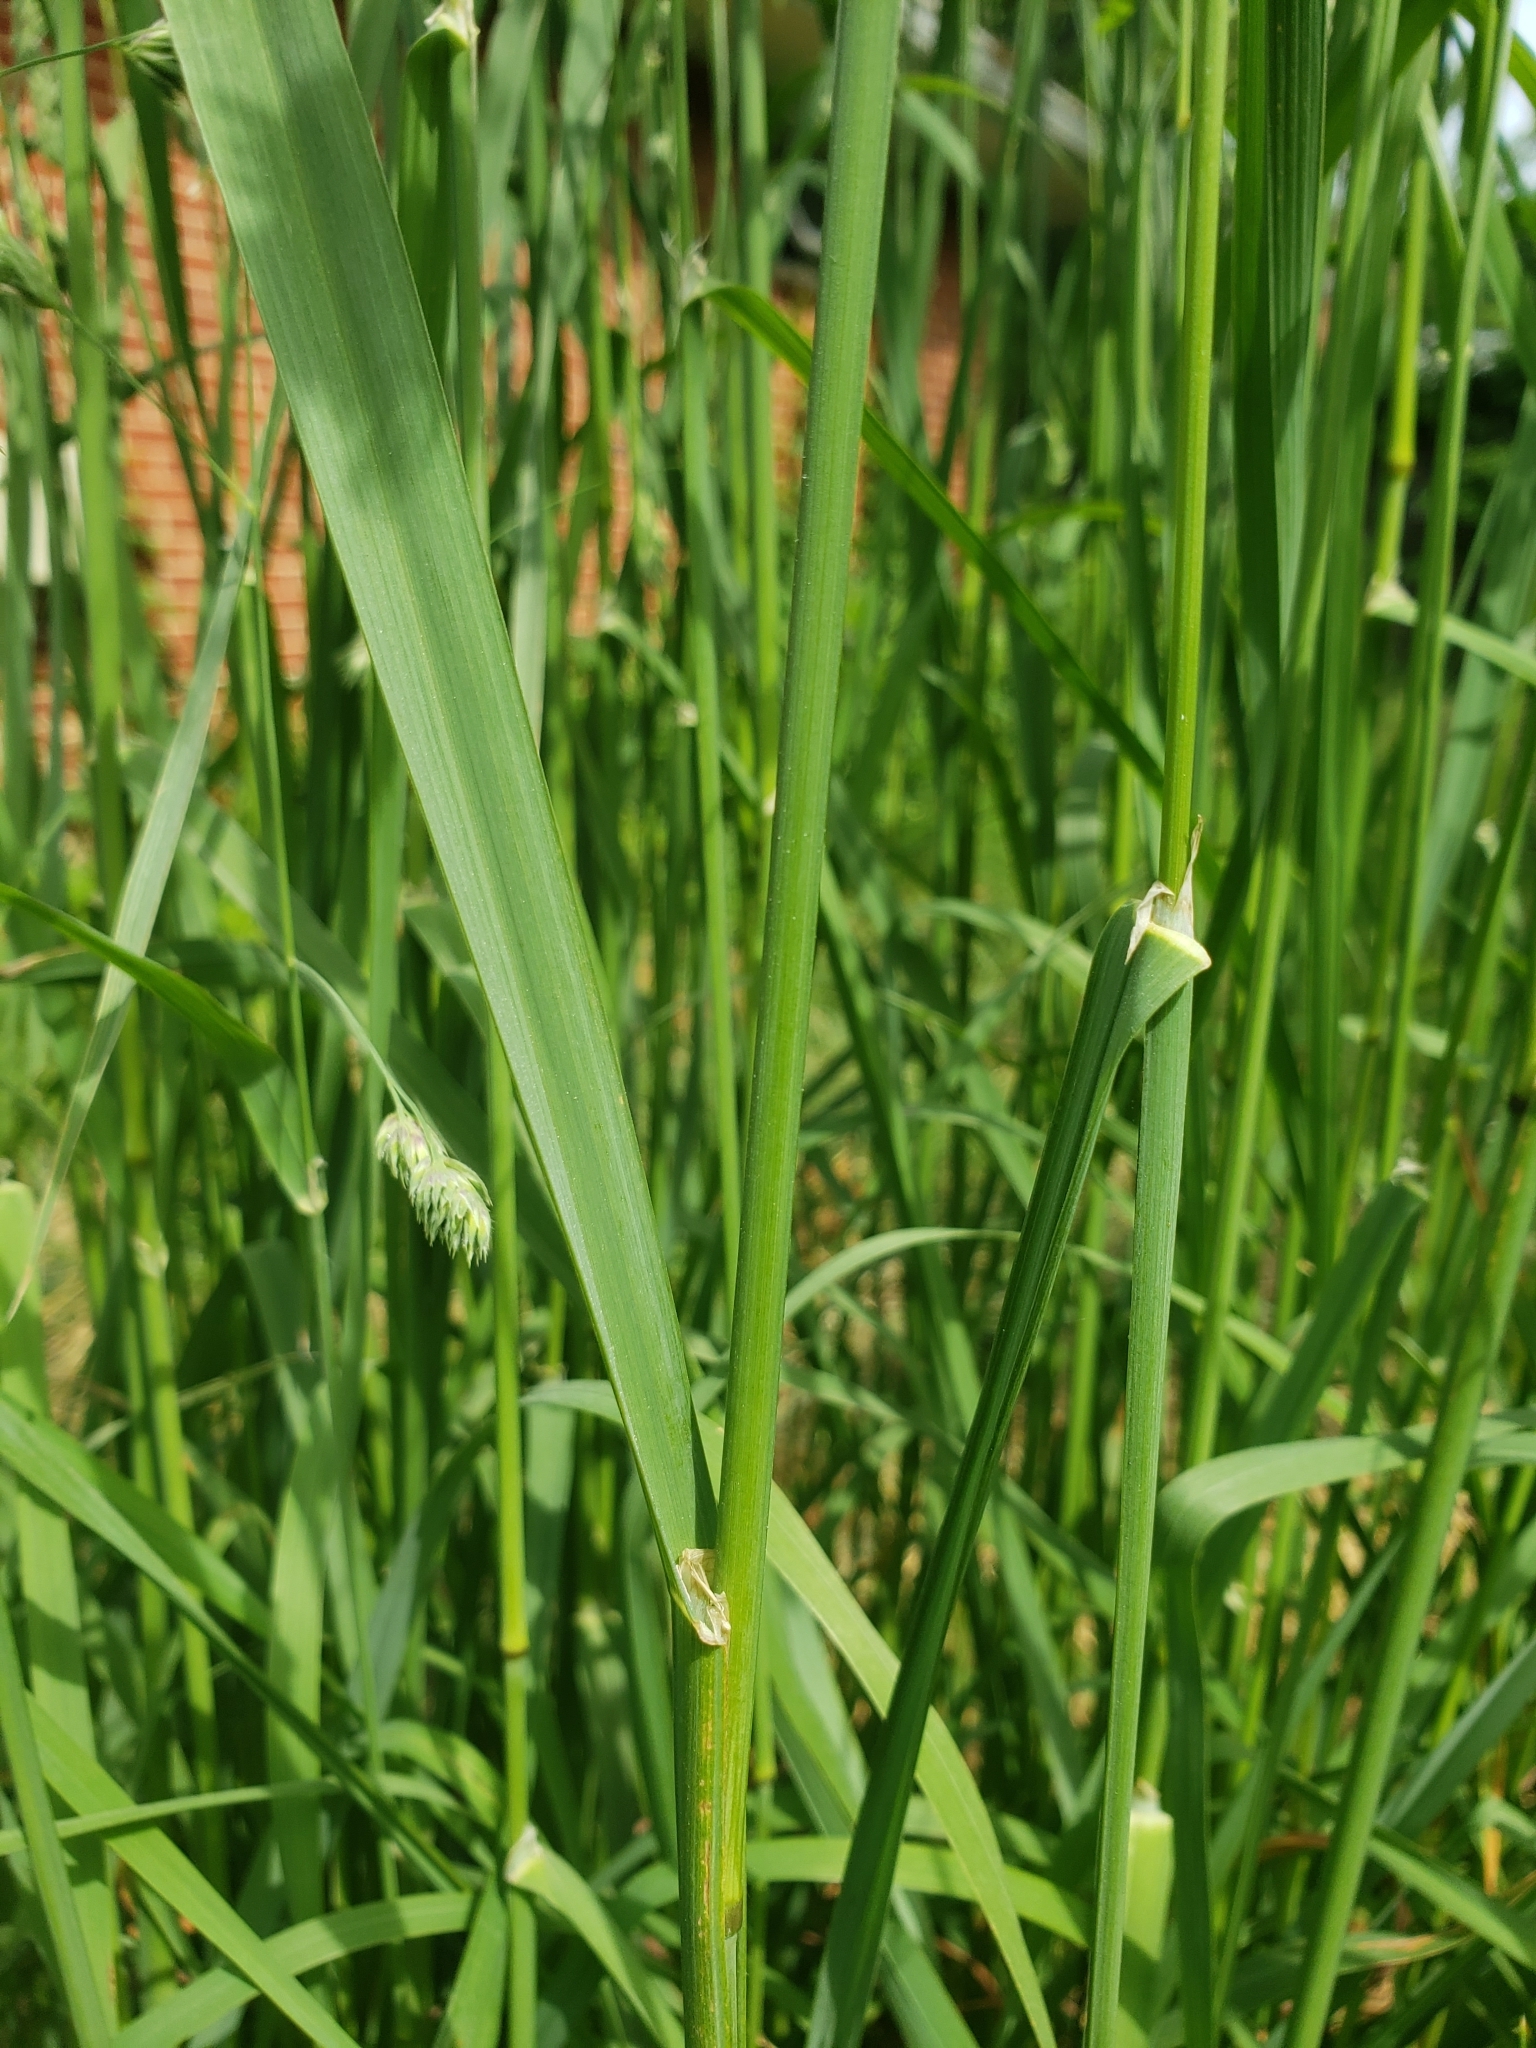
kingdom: Plantae
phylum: Tracheophyta
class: Liliopsida
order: Poales
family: Poaceae
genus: Dactylis
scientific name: Dactylis glomerata
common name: Orchardgrass
